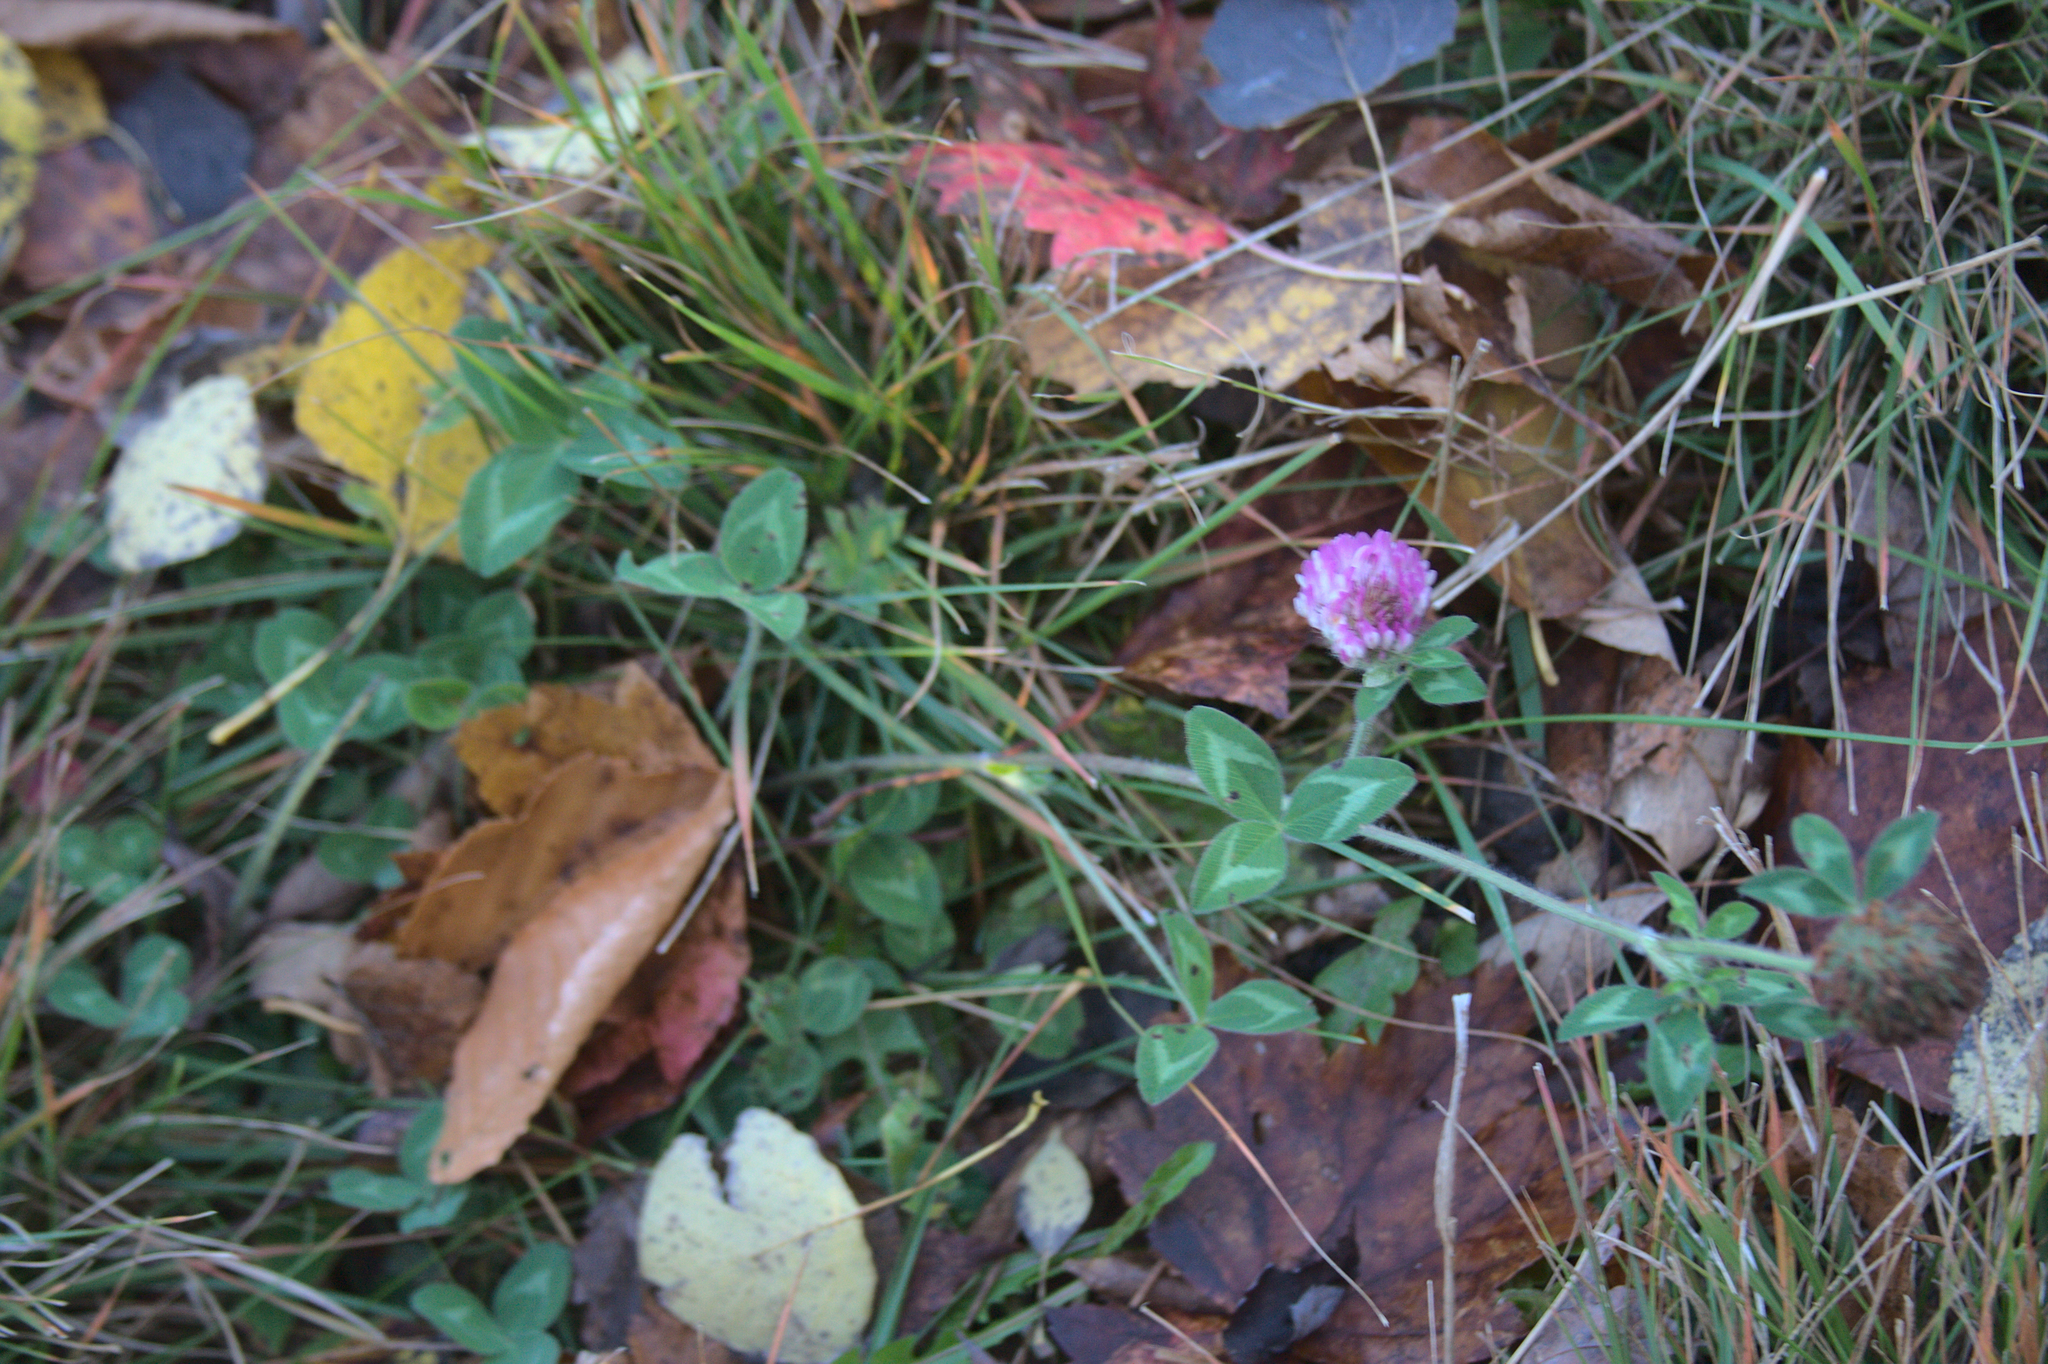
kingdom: Plantae
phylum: Tracheophyta
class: Magnoliopsida
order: Fabales
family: Fabaceae
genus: Trifolium
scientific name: Trifolium pratense
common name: Red clover
